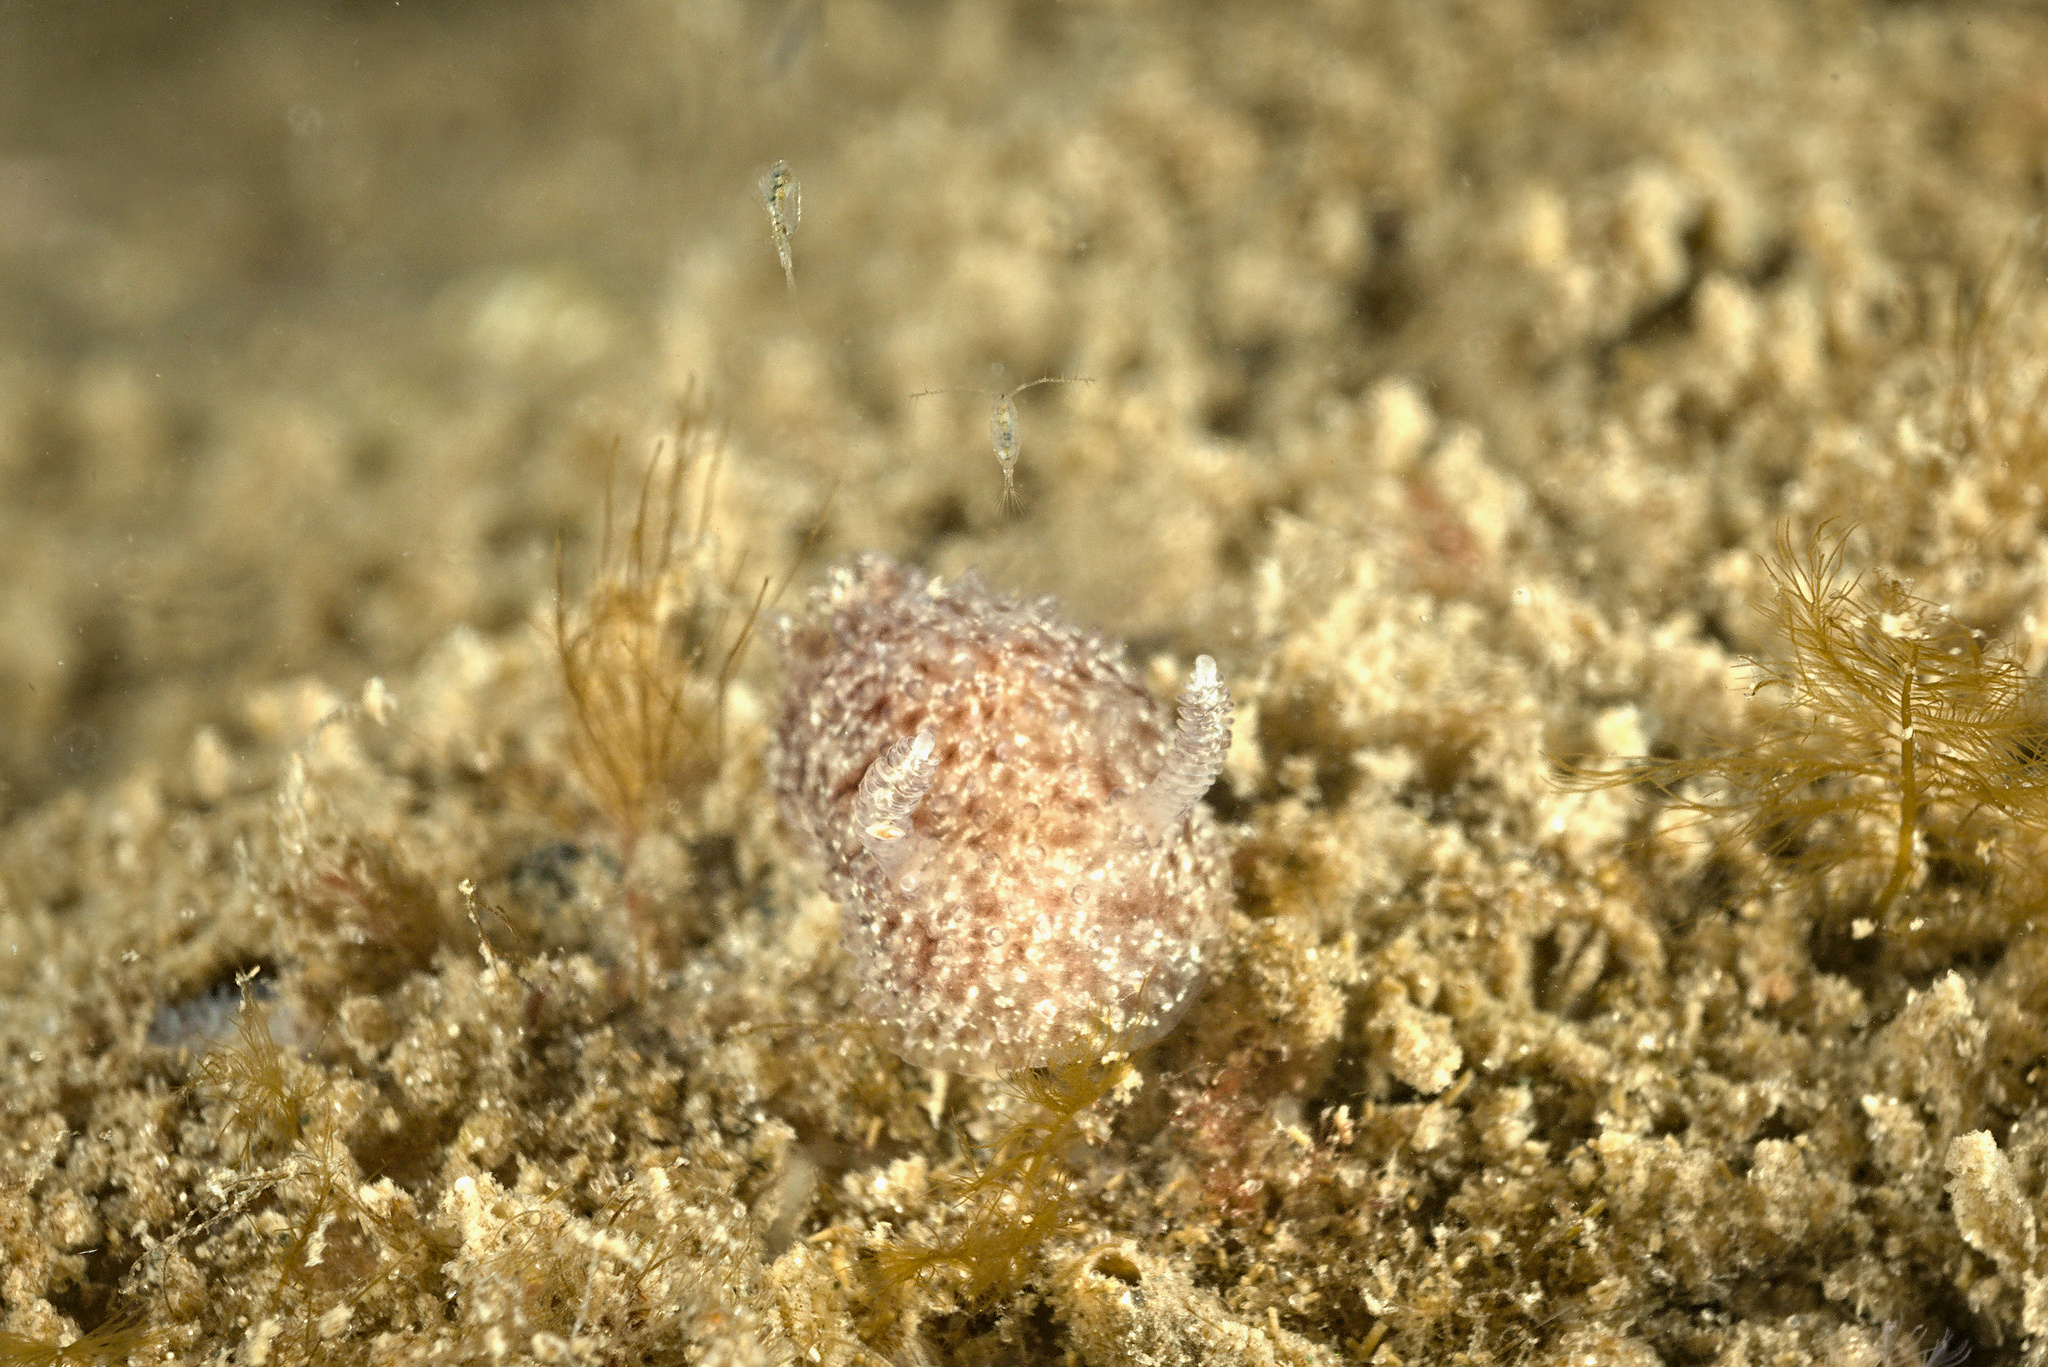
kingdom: Animalia
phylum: Mollusca
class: Gastropoda
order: Nudibranchia
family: Onchidorididae
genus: Acanthodoris
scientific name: Acanthodoris pilosa
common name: Hairy spiny doris
